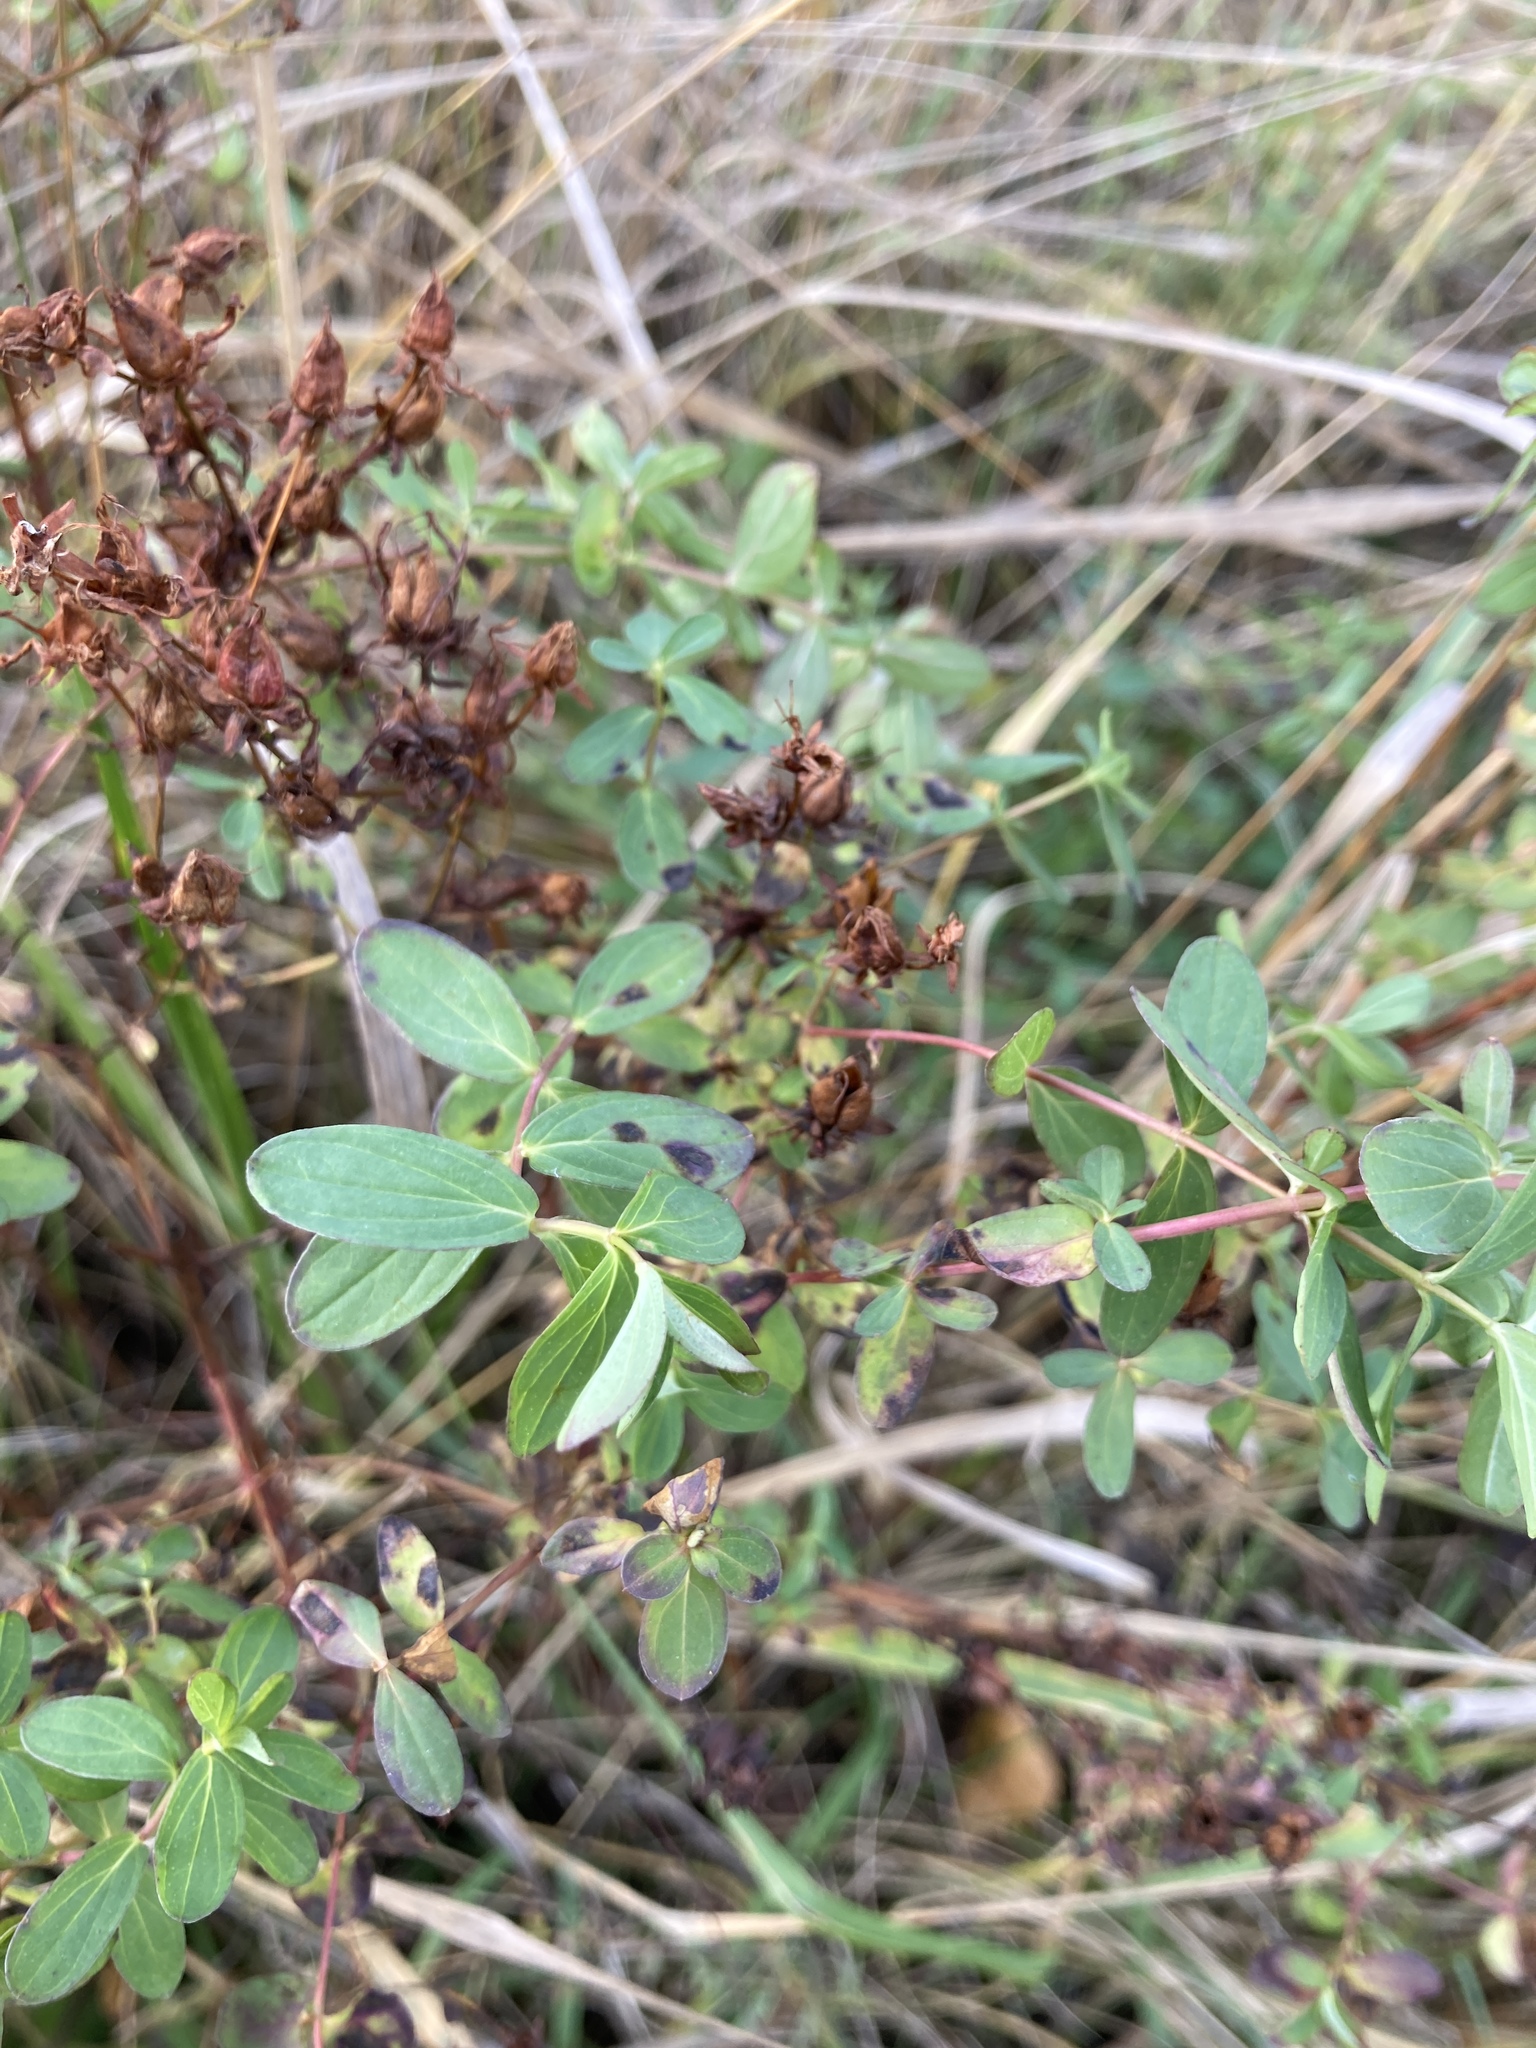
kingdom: Plantae
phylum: Tracheophyta
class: Magnoliopsida
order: Malpighiales
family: Hypericaceae
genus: Hypericum
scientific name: Hypericum perforatum
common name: Common st. johnswort
